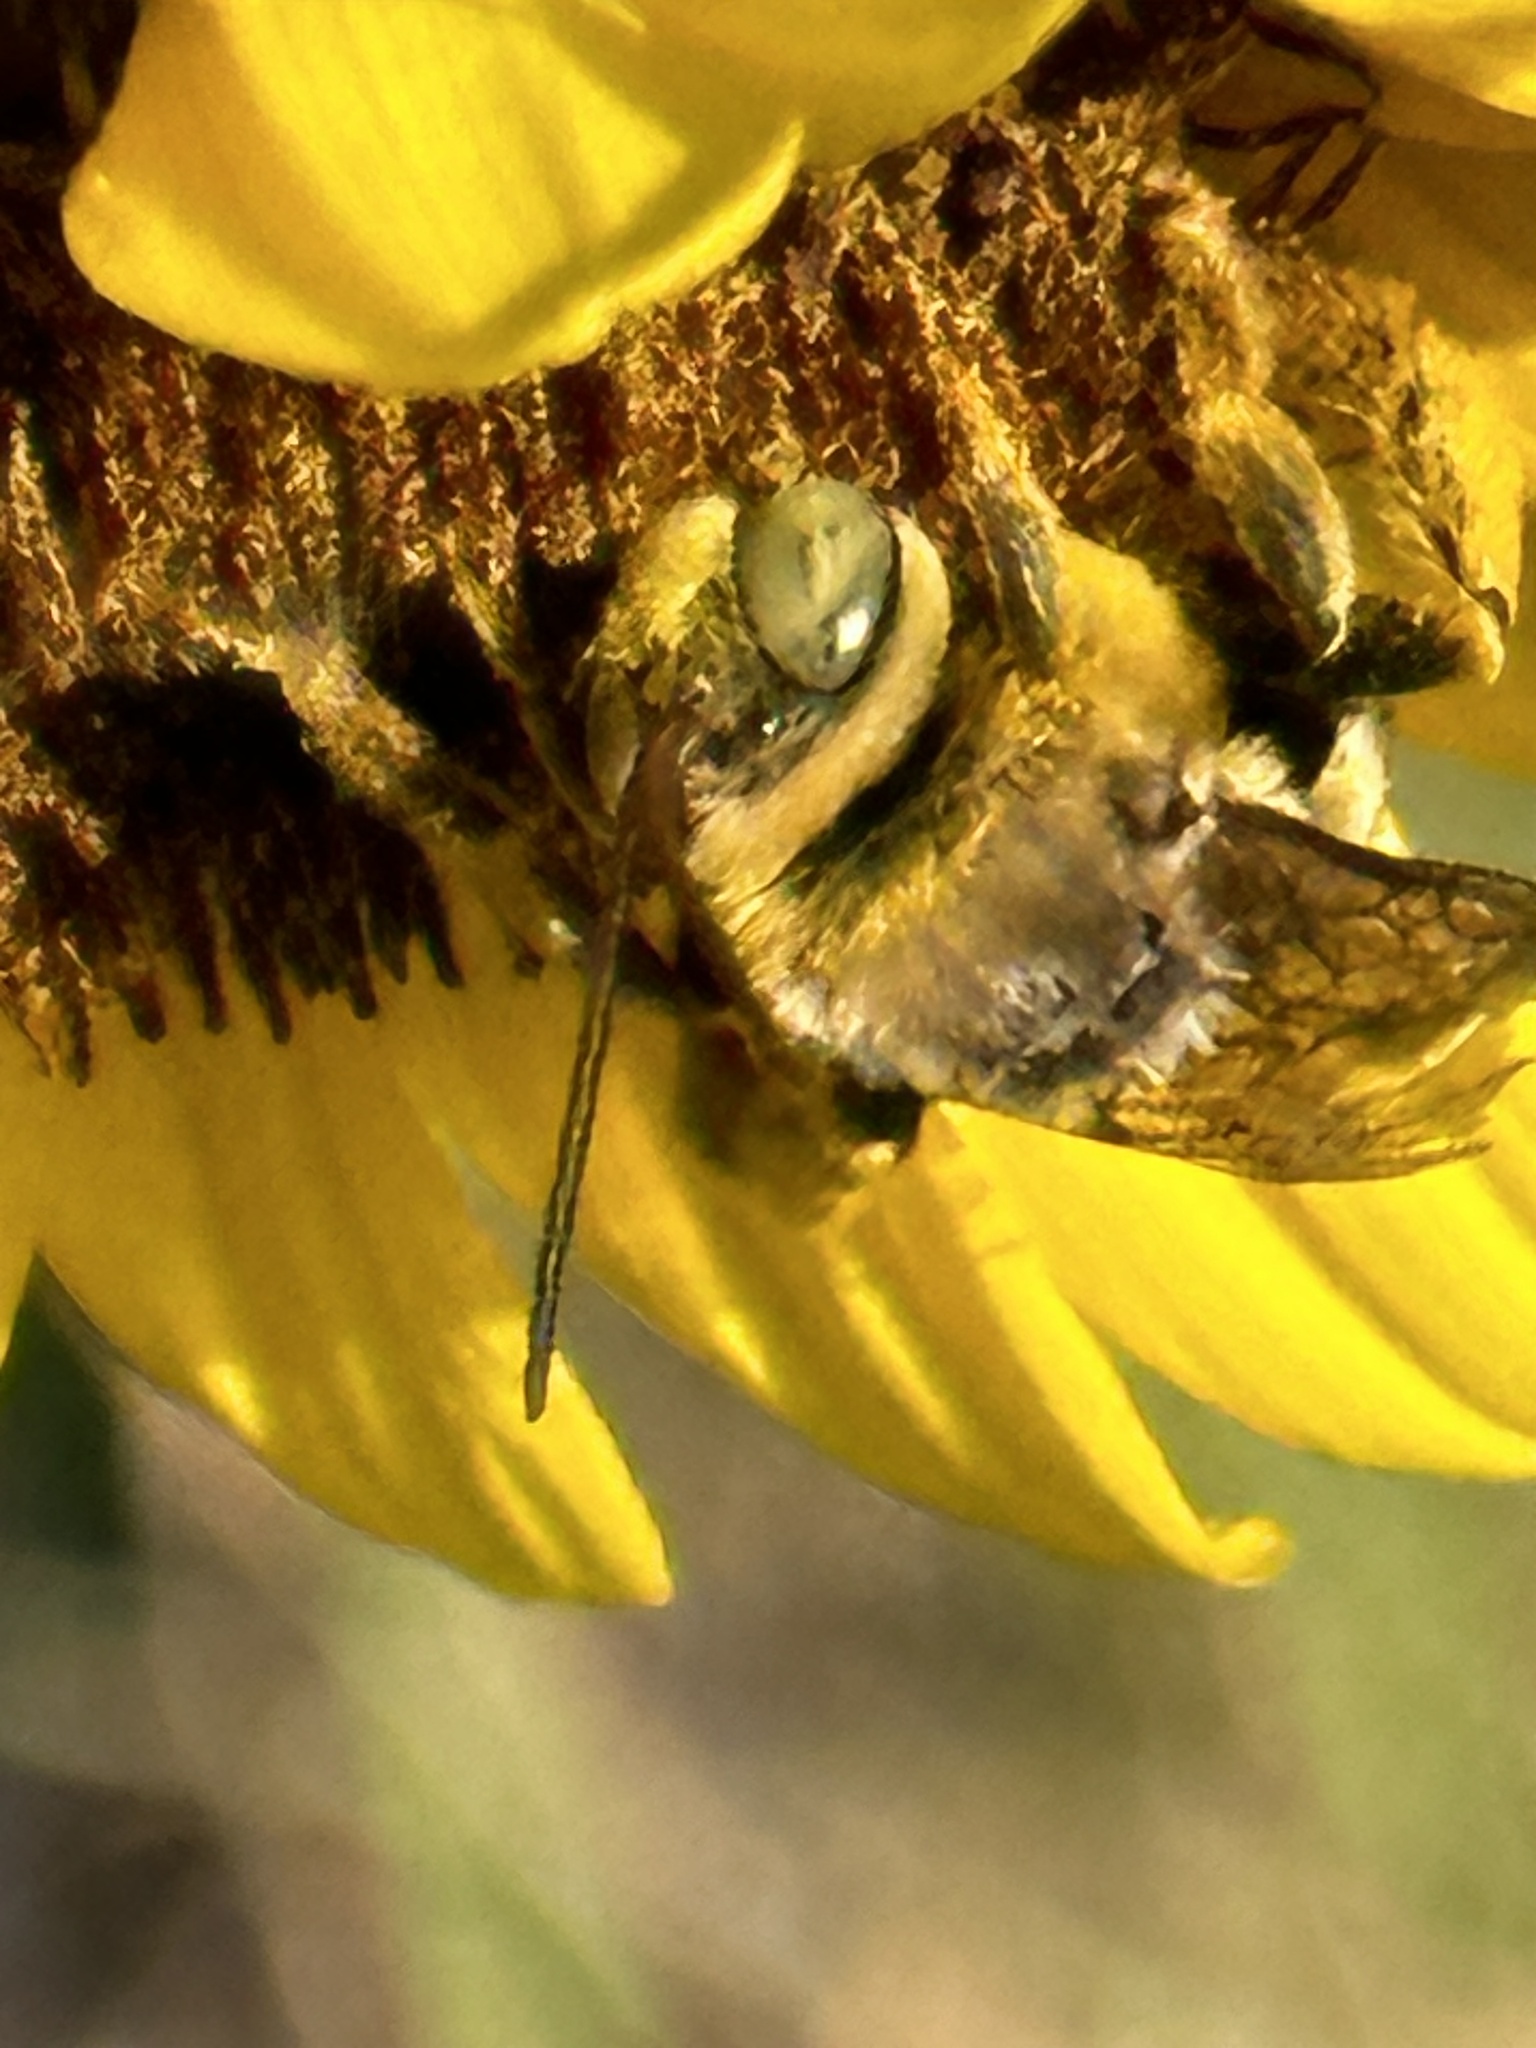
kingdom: Animalia
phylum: Arthropoda
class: Insecta
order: Hymenoptera
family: Apidae
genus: Svastra
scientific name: Svastra obliqua
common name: Oblique longhorn
